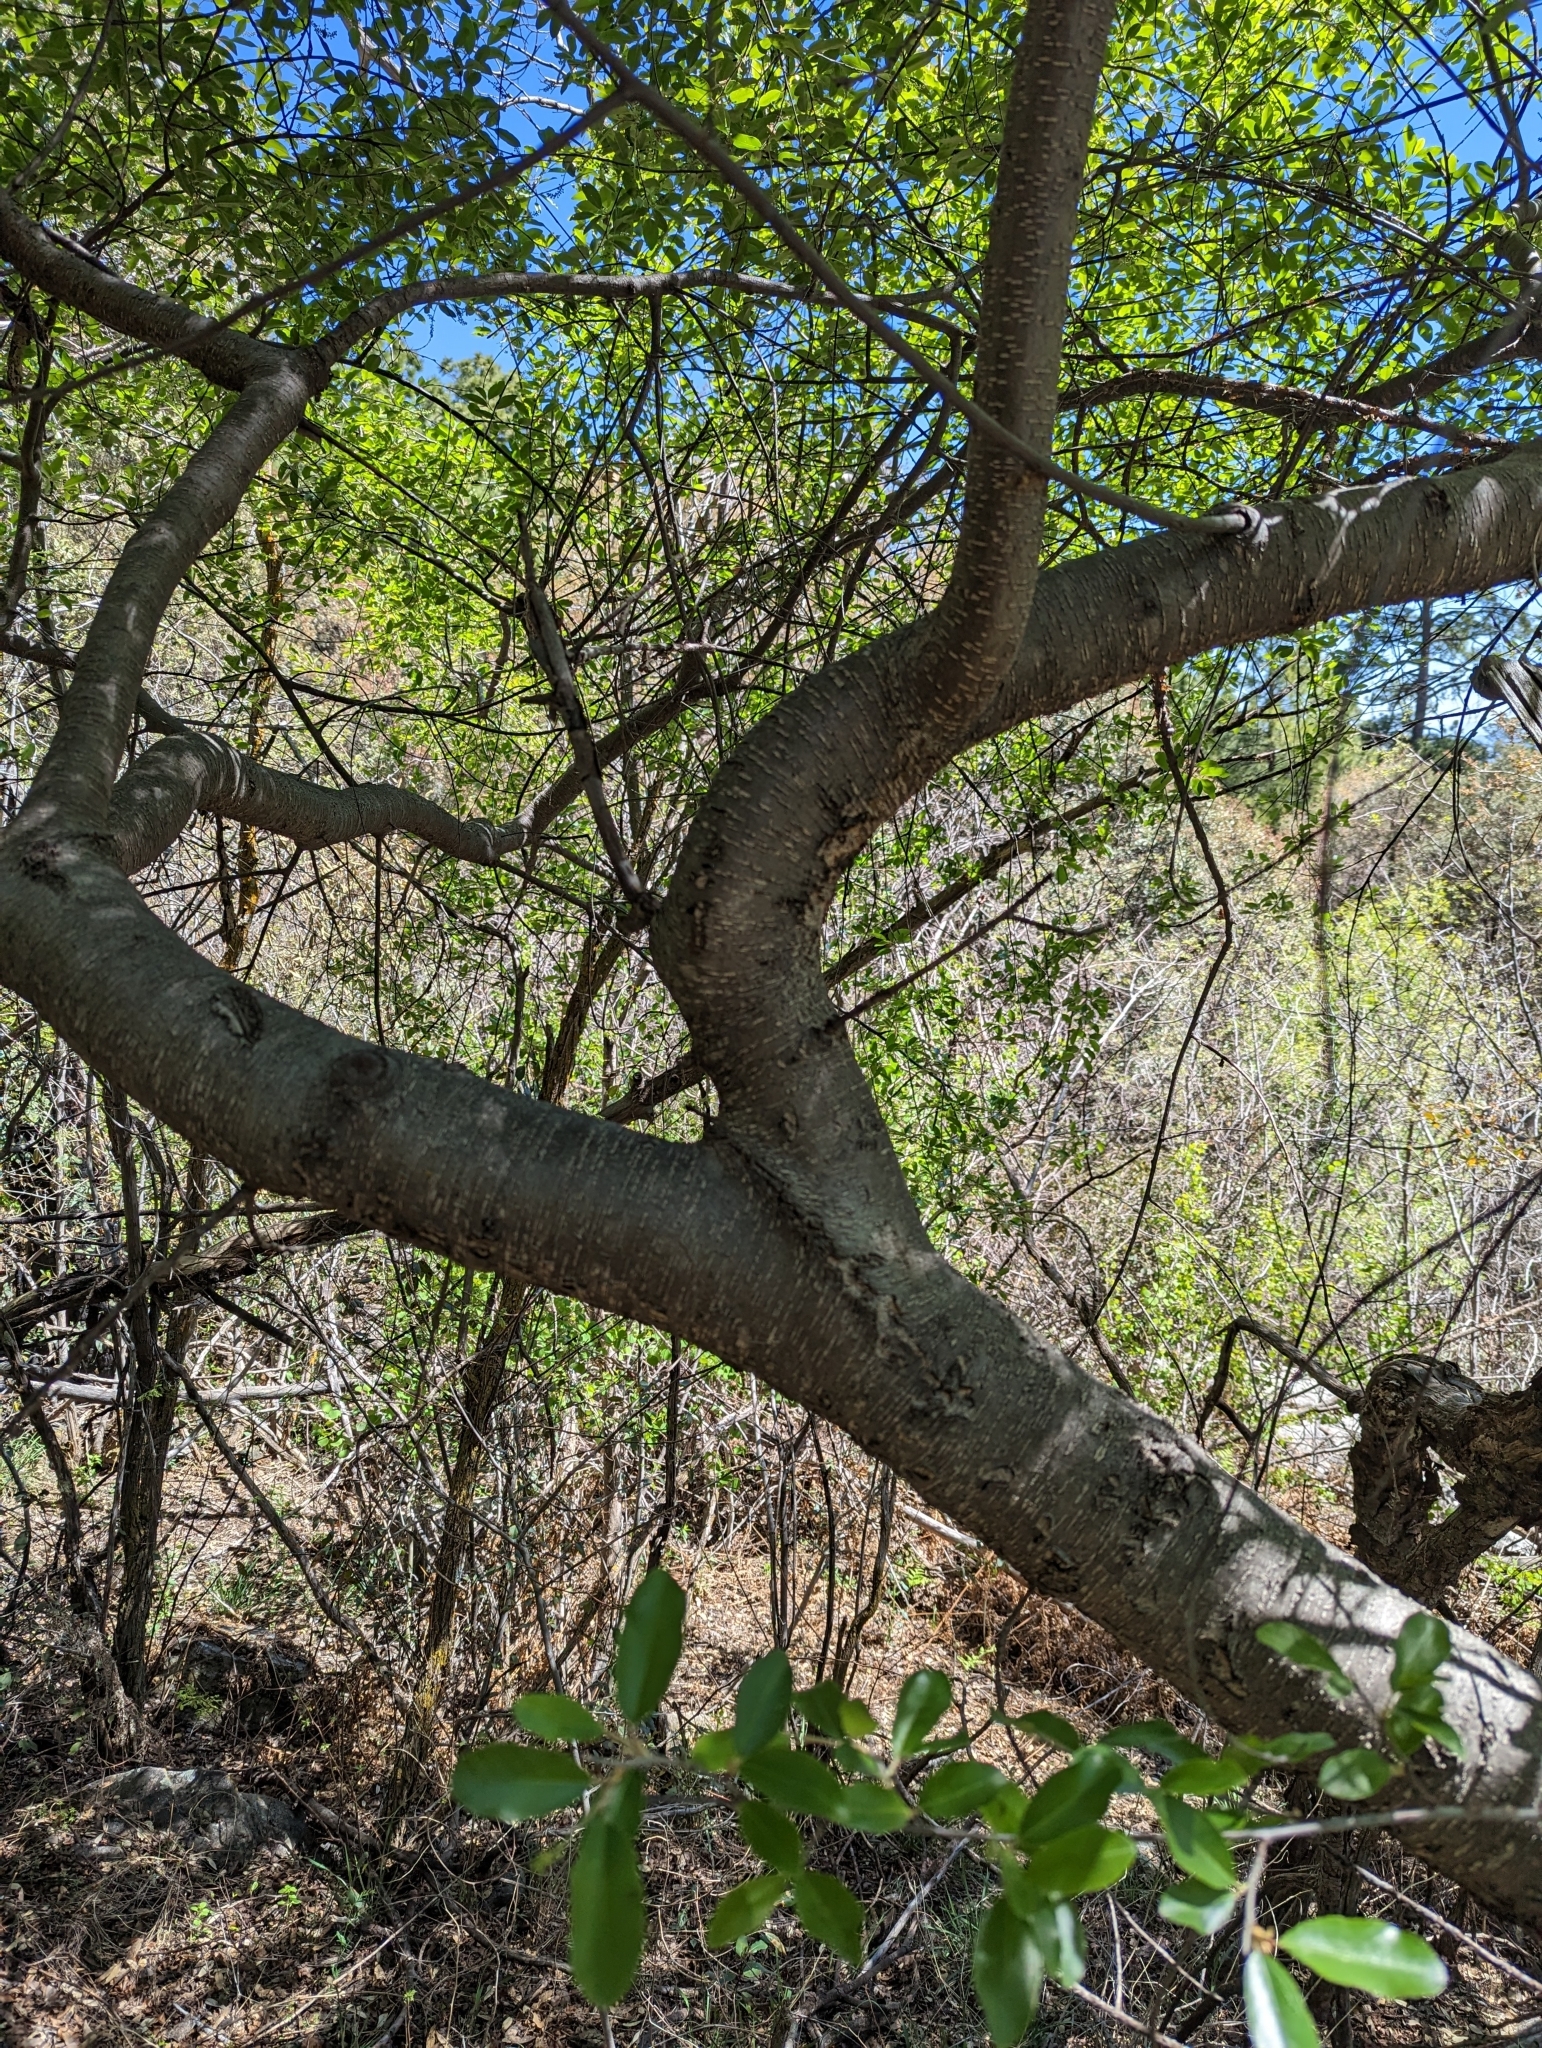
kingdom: Plantae
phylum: Tracheophyta
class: Magnoliopsida
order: Rosales
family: Rosaceae
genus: Prunus
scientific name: Prunus serotina
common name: Black cherry
